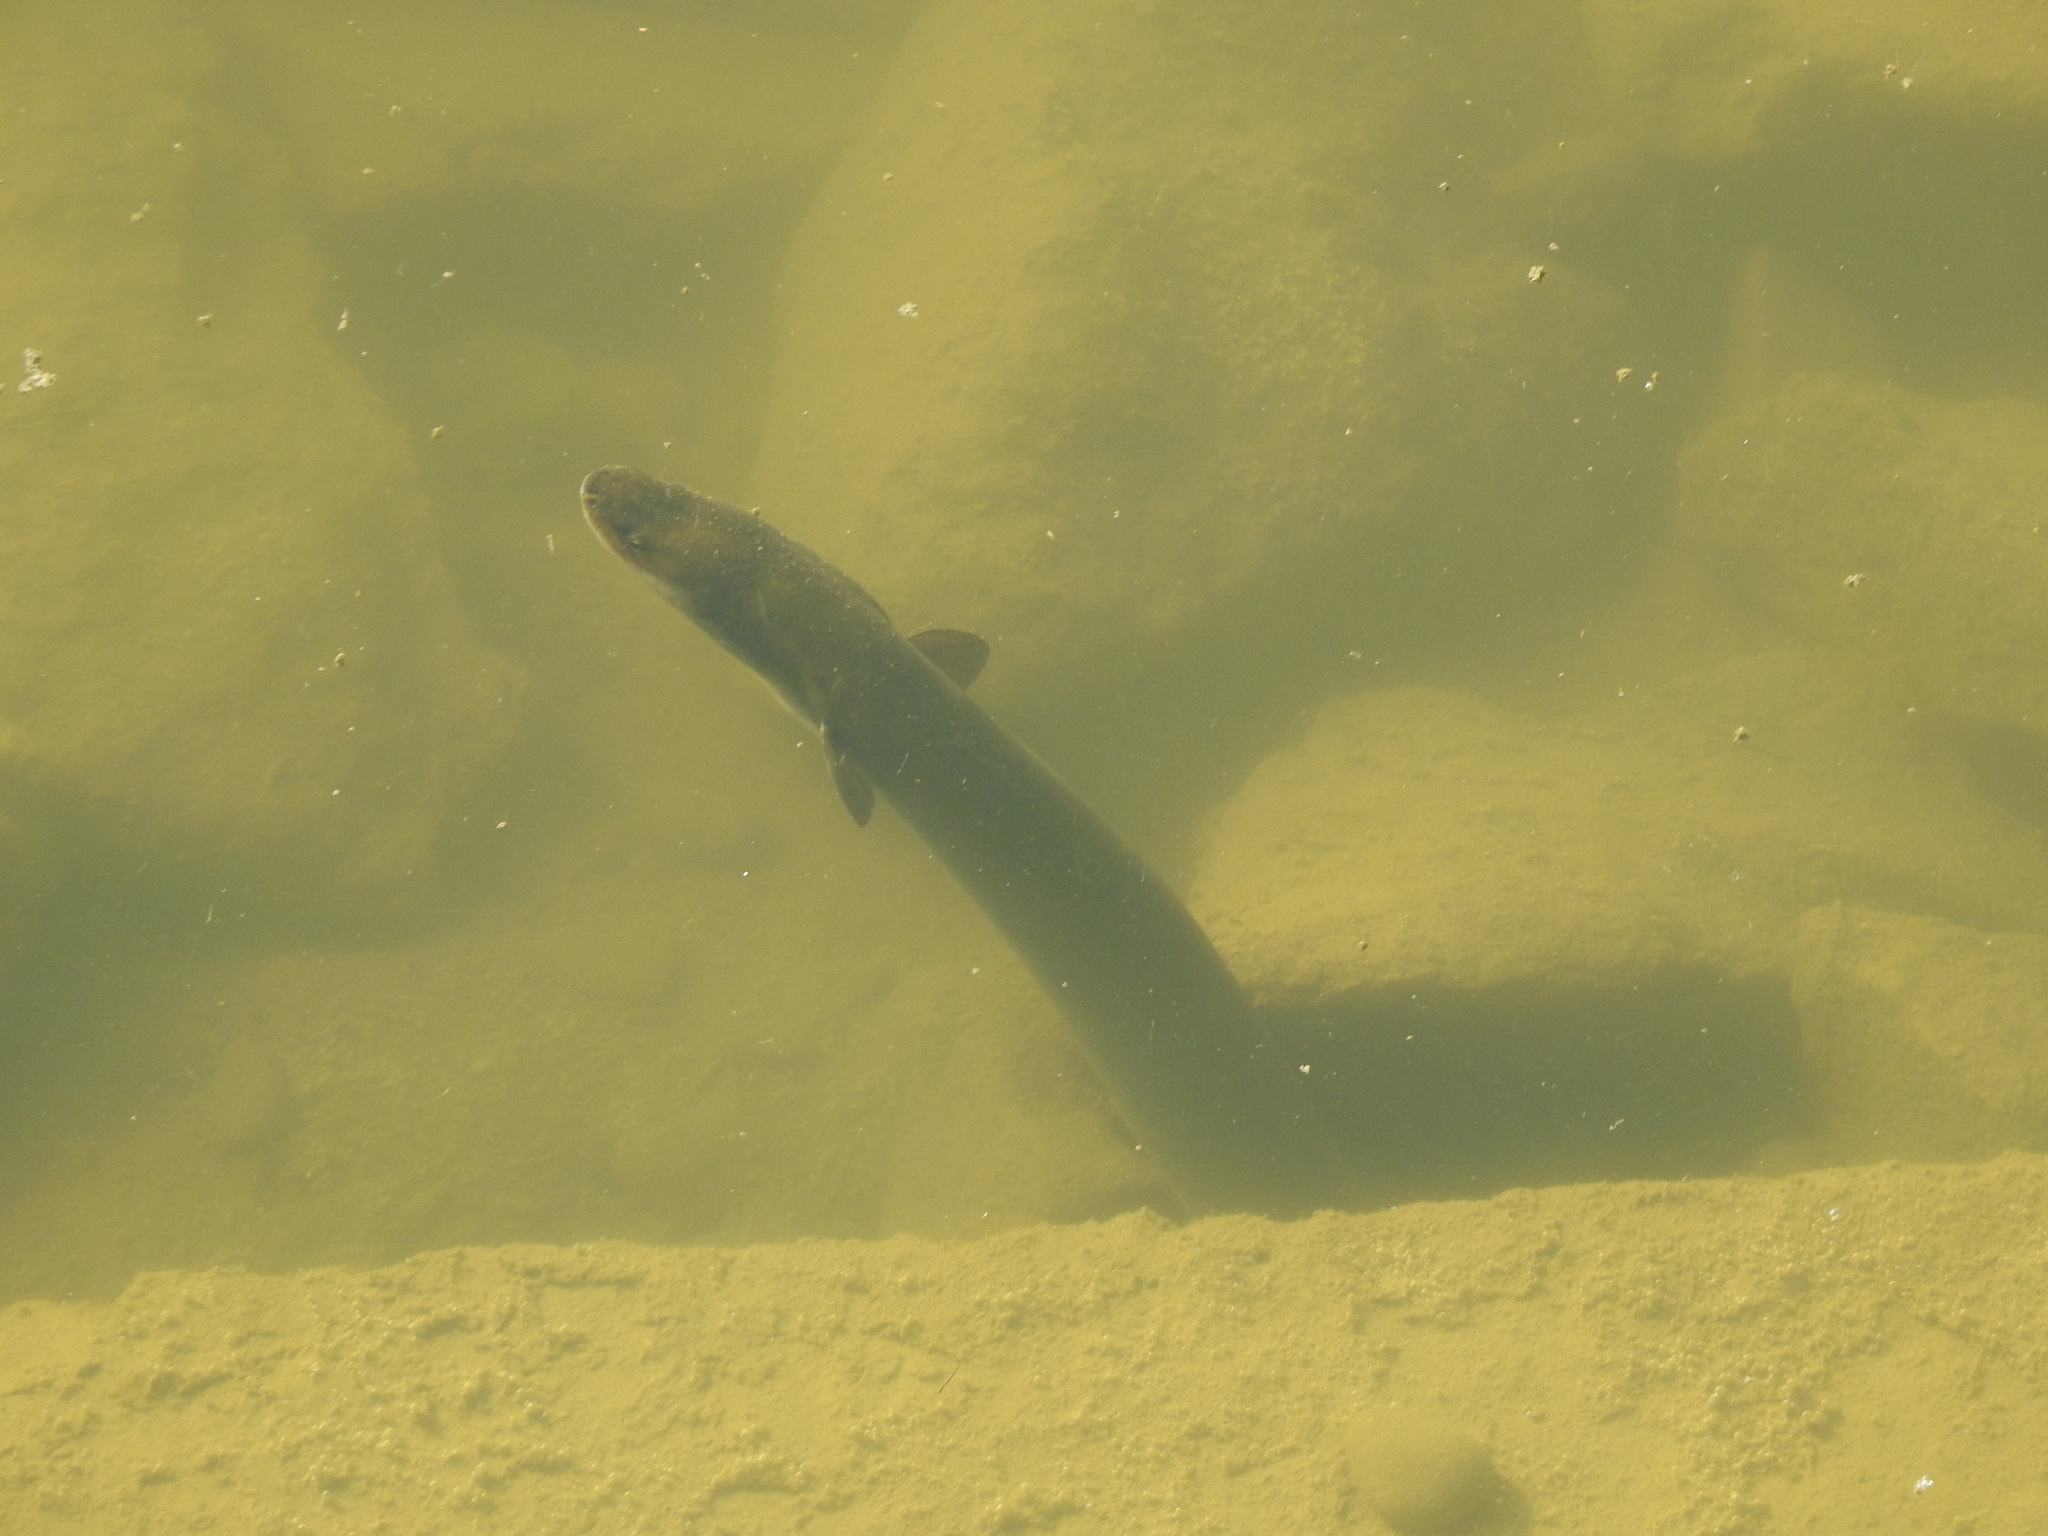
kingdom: Animalia
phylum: Chordata
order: Anguilliformes
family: Anguillidae
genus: Anguilla
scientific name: Anguilla australis
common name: Shortfin eel
